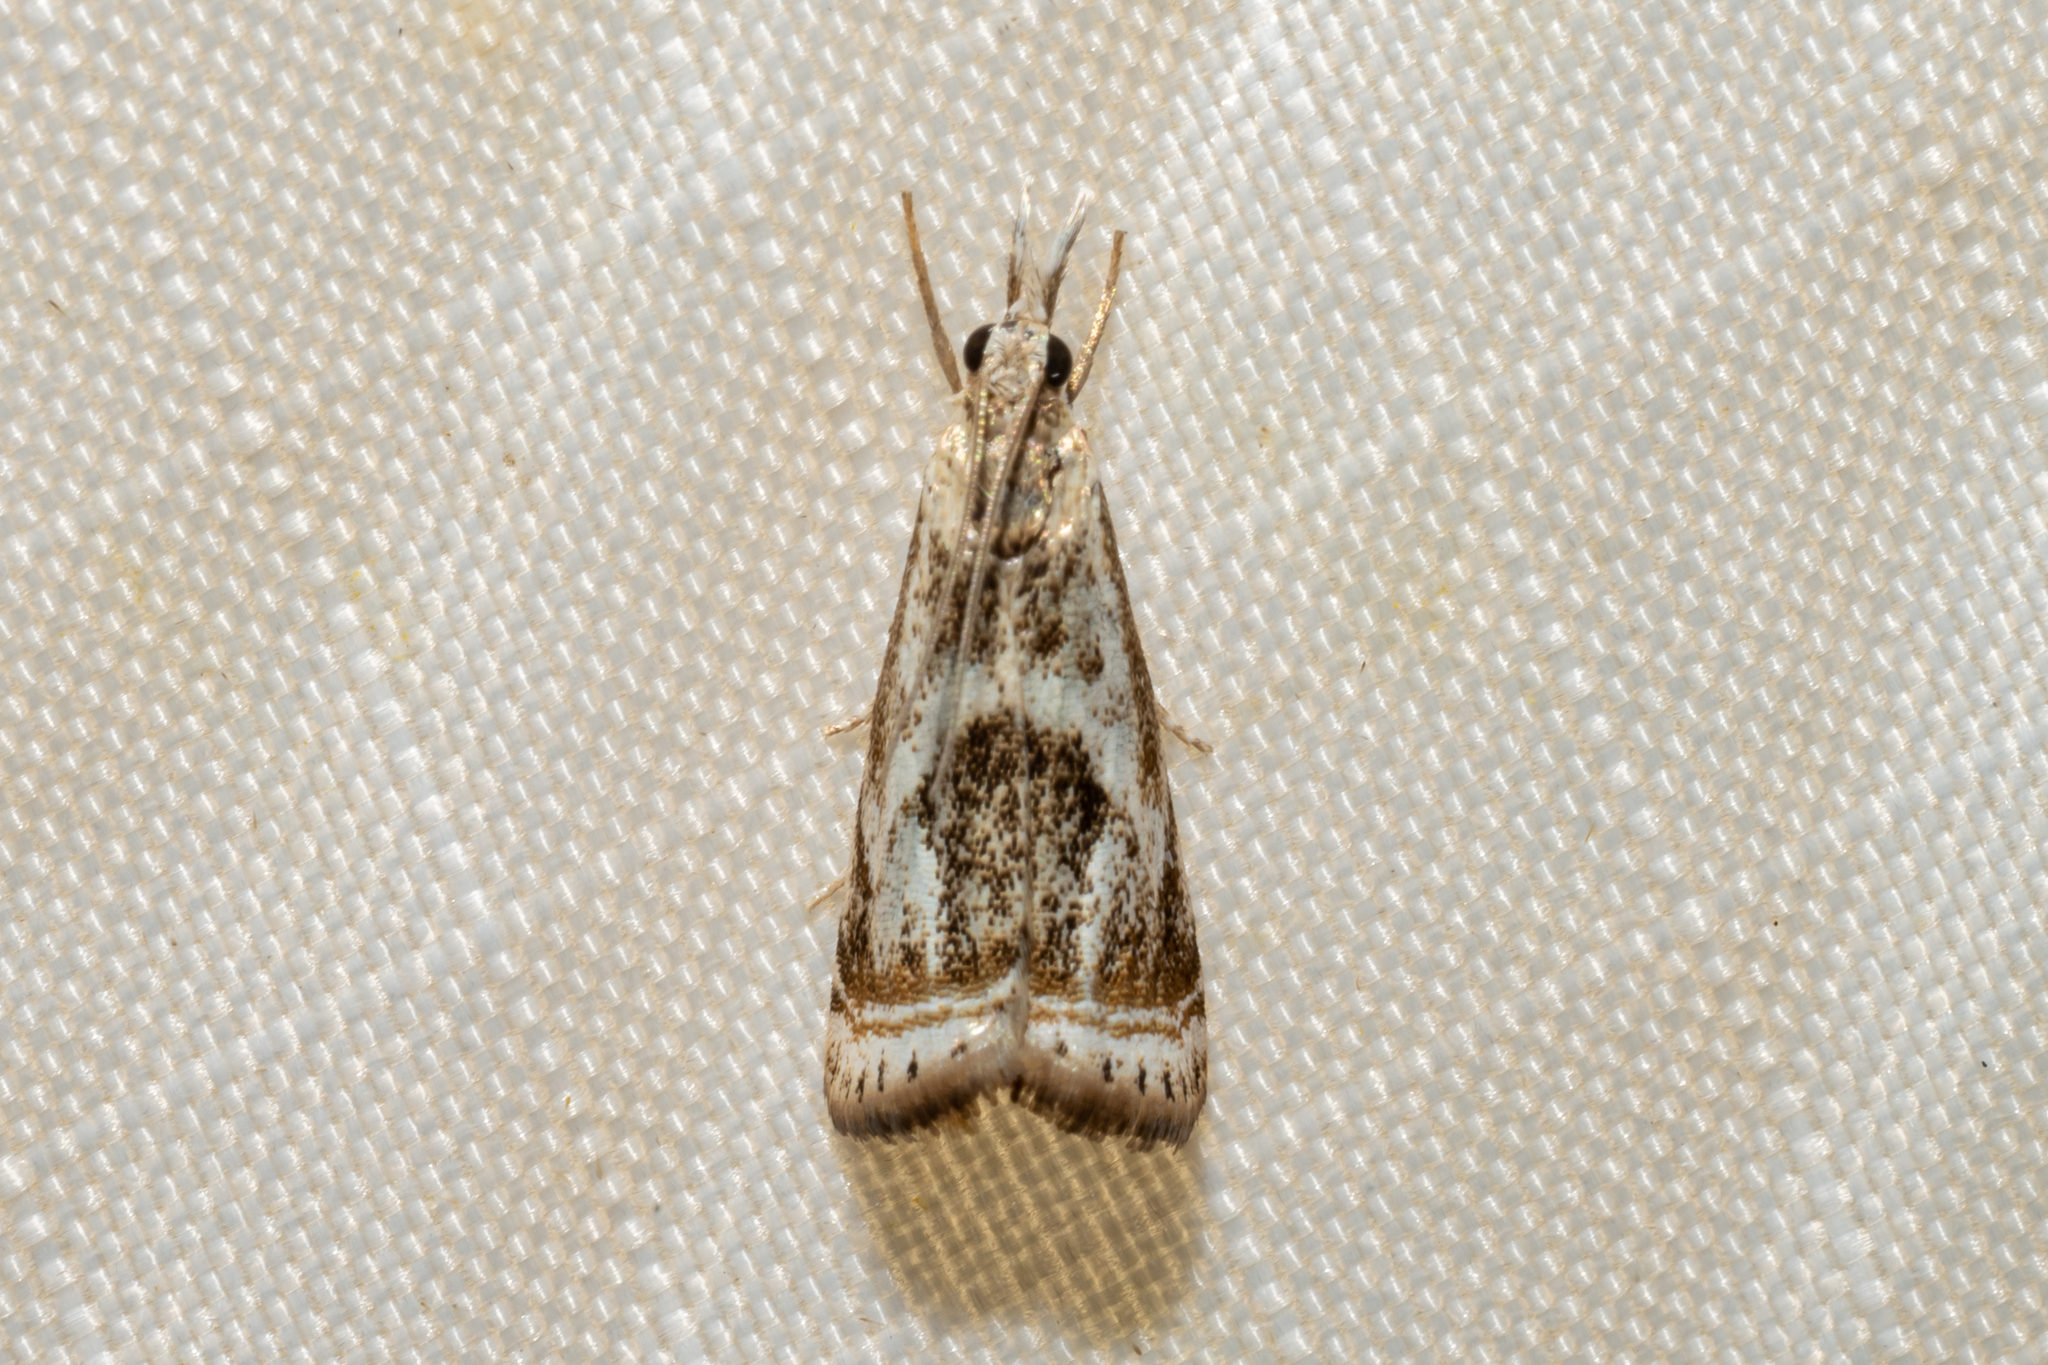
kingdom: Animalia
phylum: Arthropoda
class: Insecta
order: Lepidoptera
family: Crambidae
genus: Microcrambus
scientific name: Microcrambus elegans
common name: Elegant grass-veneer
